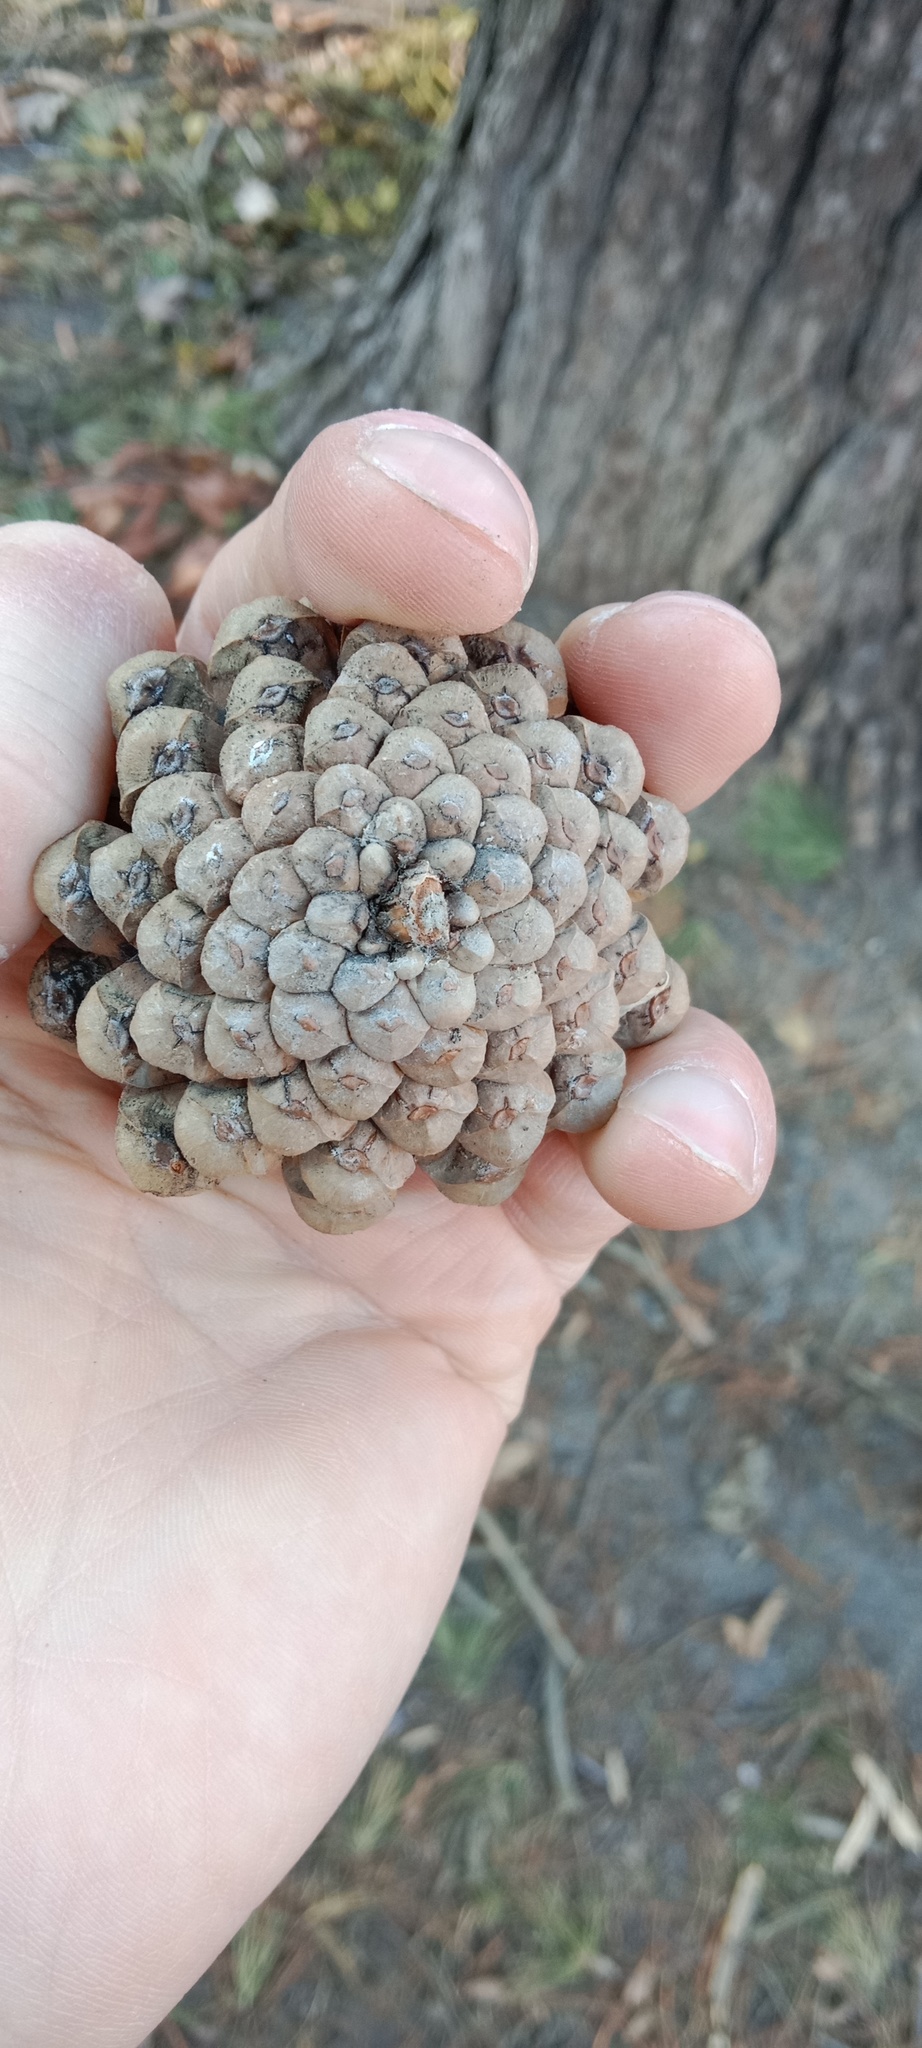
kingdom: Plantae
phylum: Tracheophyta
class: Pinopsida
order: Pinales
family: Pinaceae
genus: Pinus
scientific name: Pinus sylvestris
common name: Scots pine
